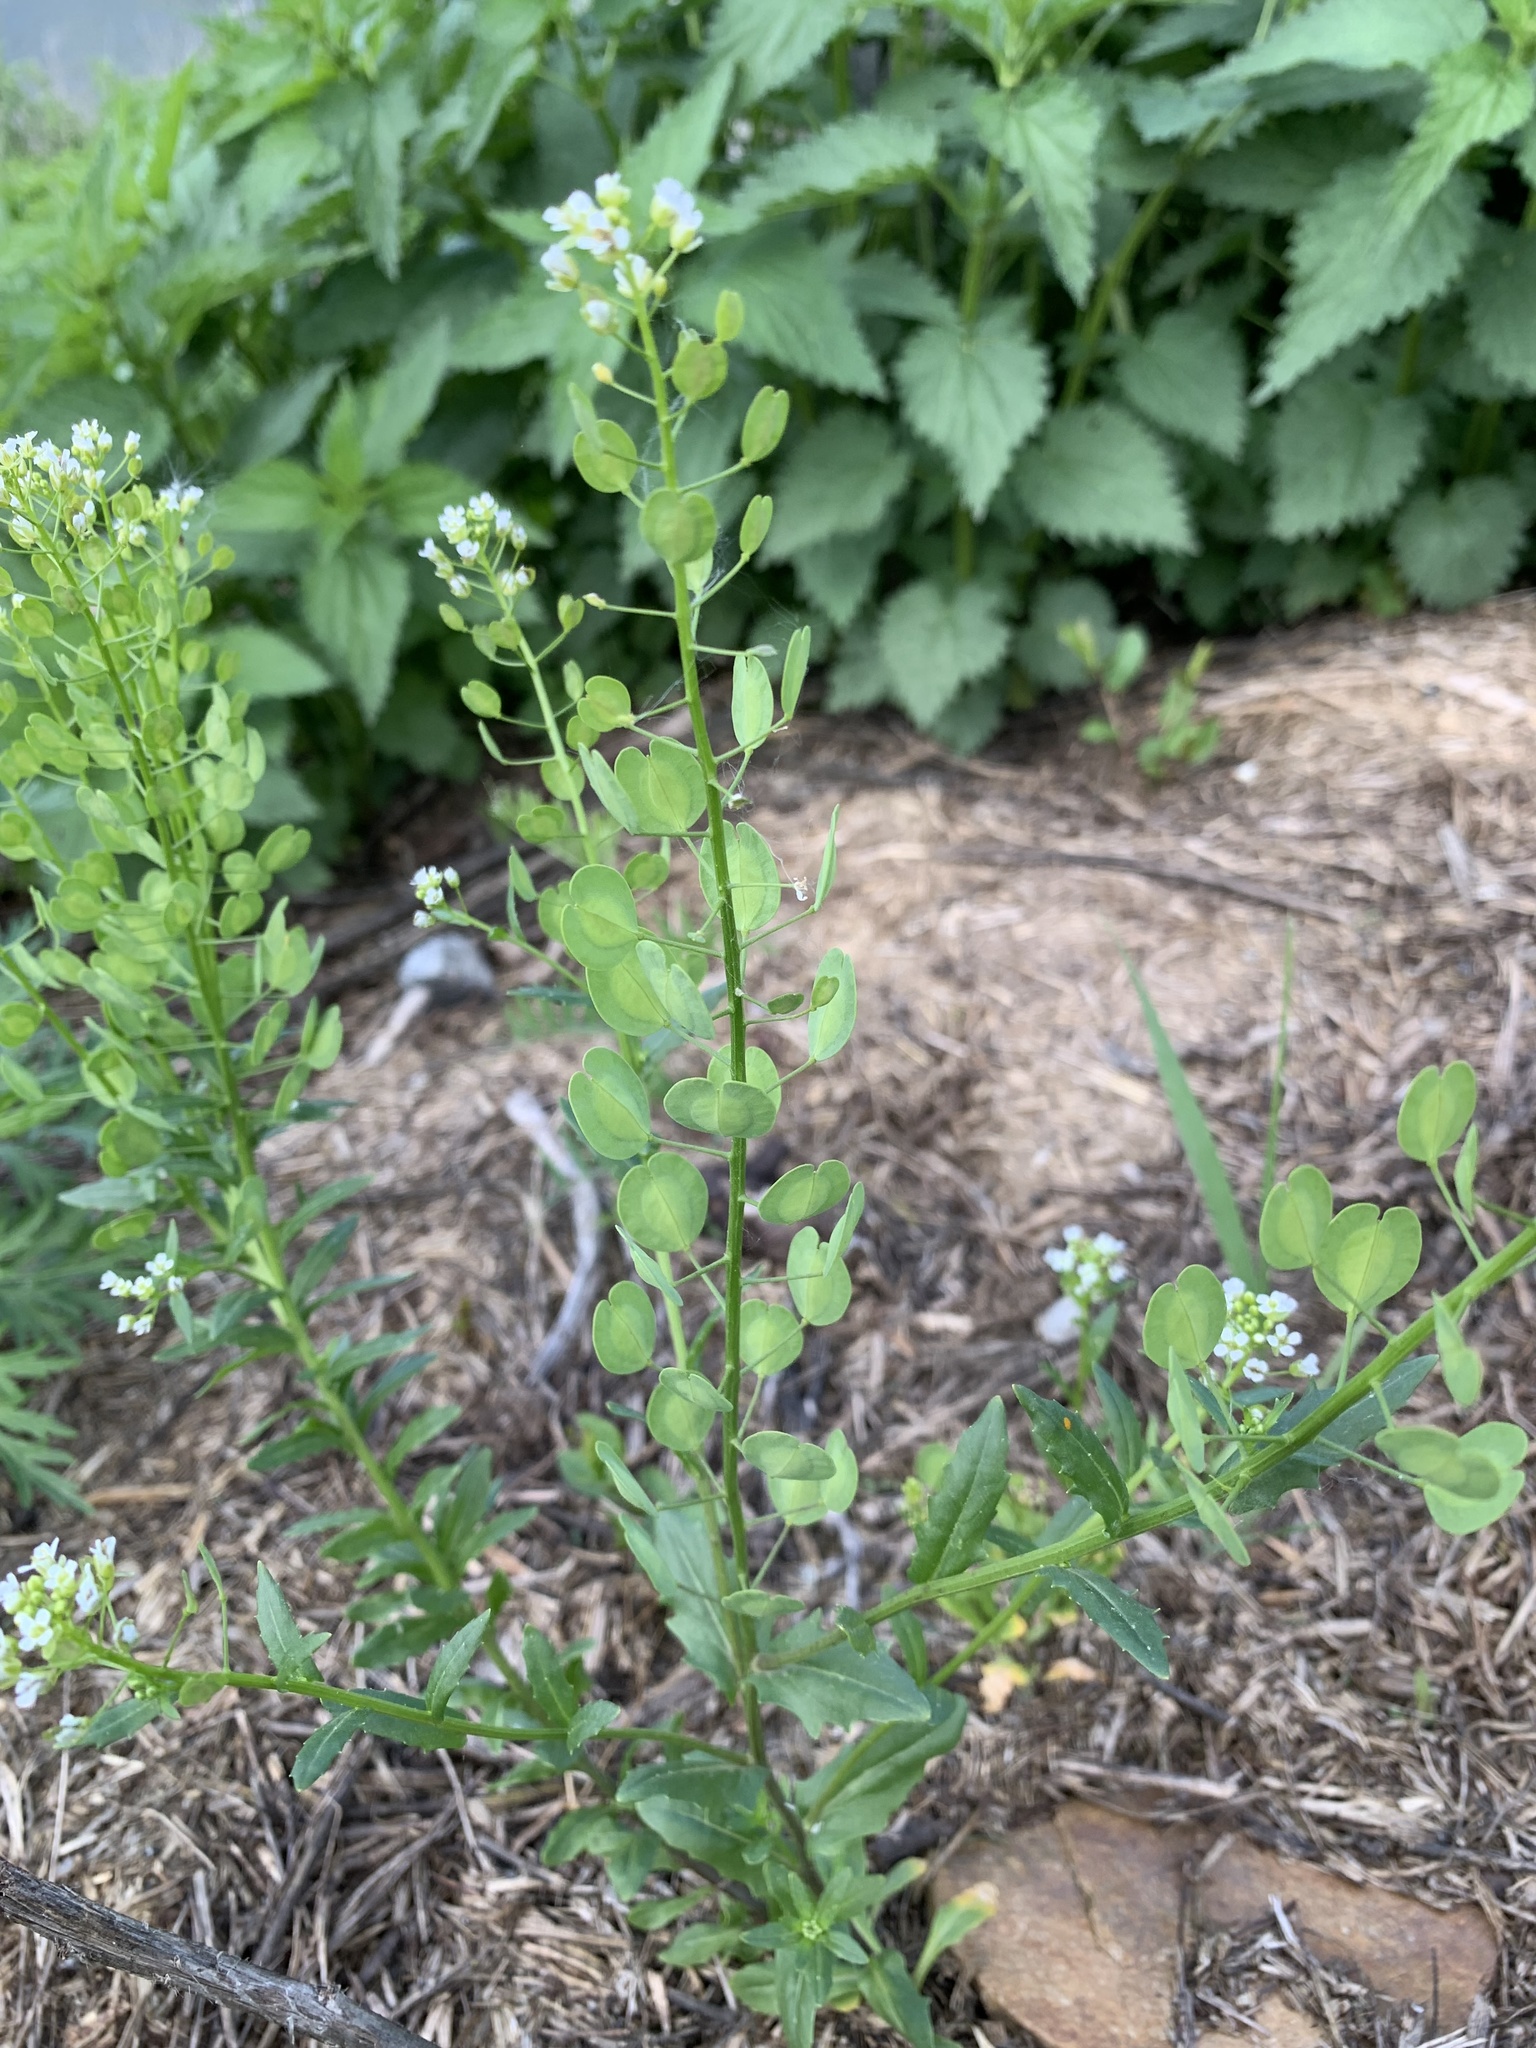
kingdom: Plantae
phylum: Tracheophyta
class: Magnoliopsida
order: Brassicales
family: Brassicaceae
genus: Thlaspi
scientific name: Thlaspi arvense
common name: Field pennycress
